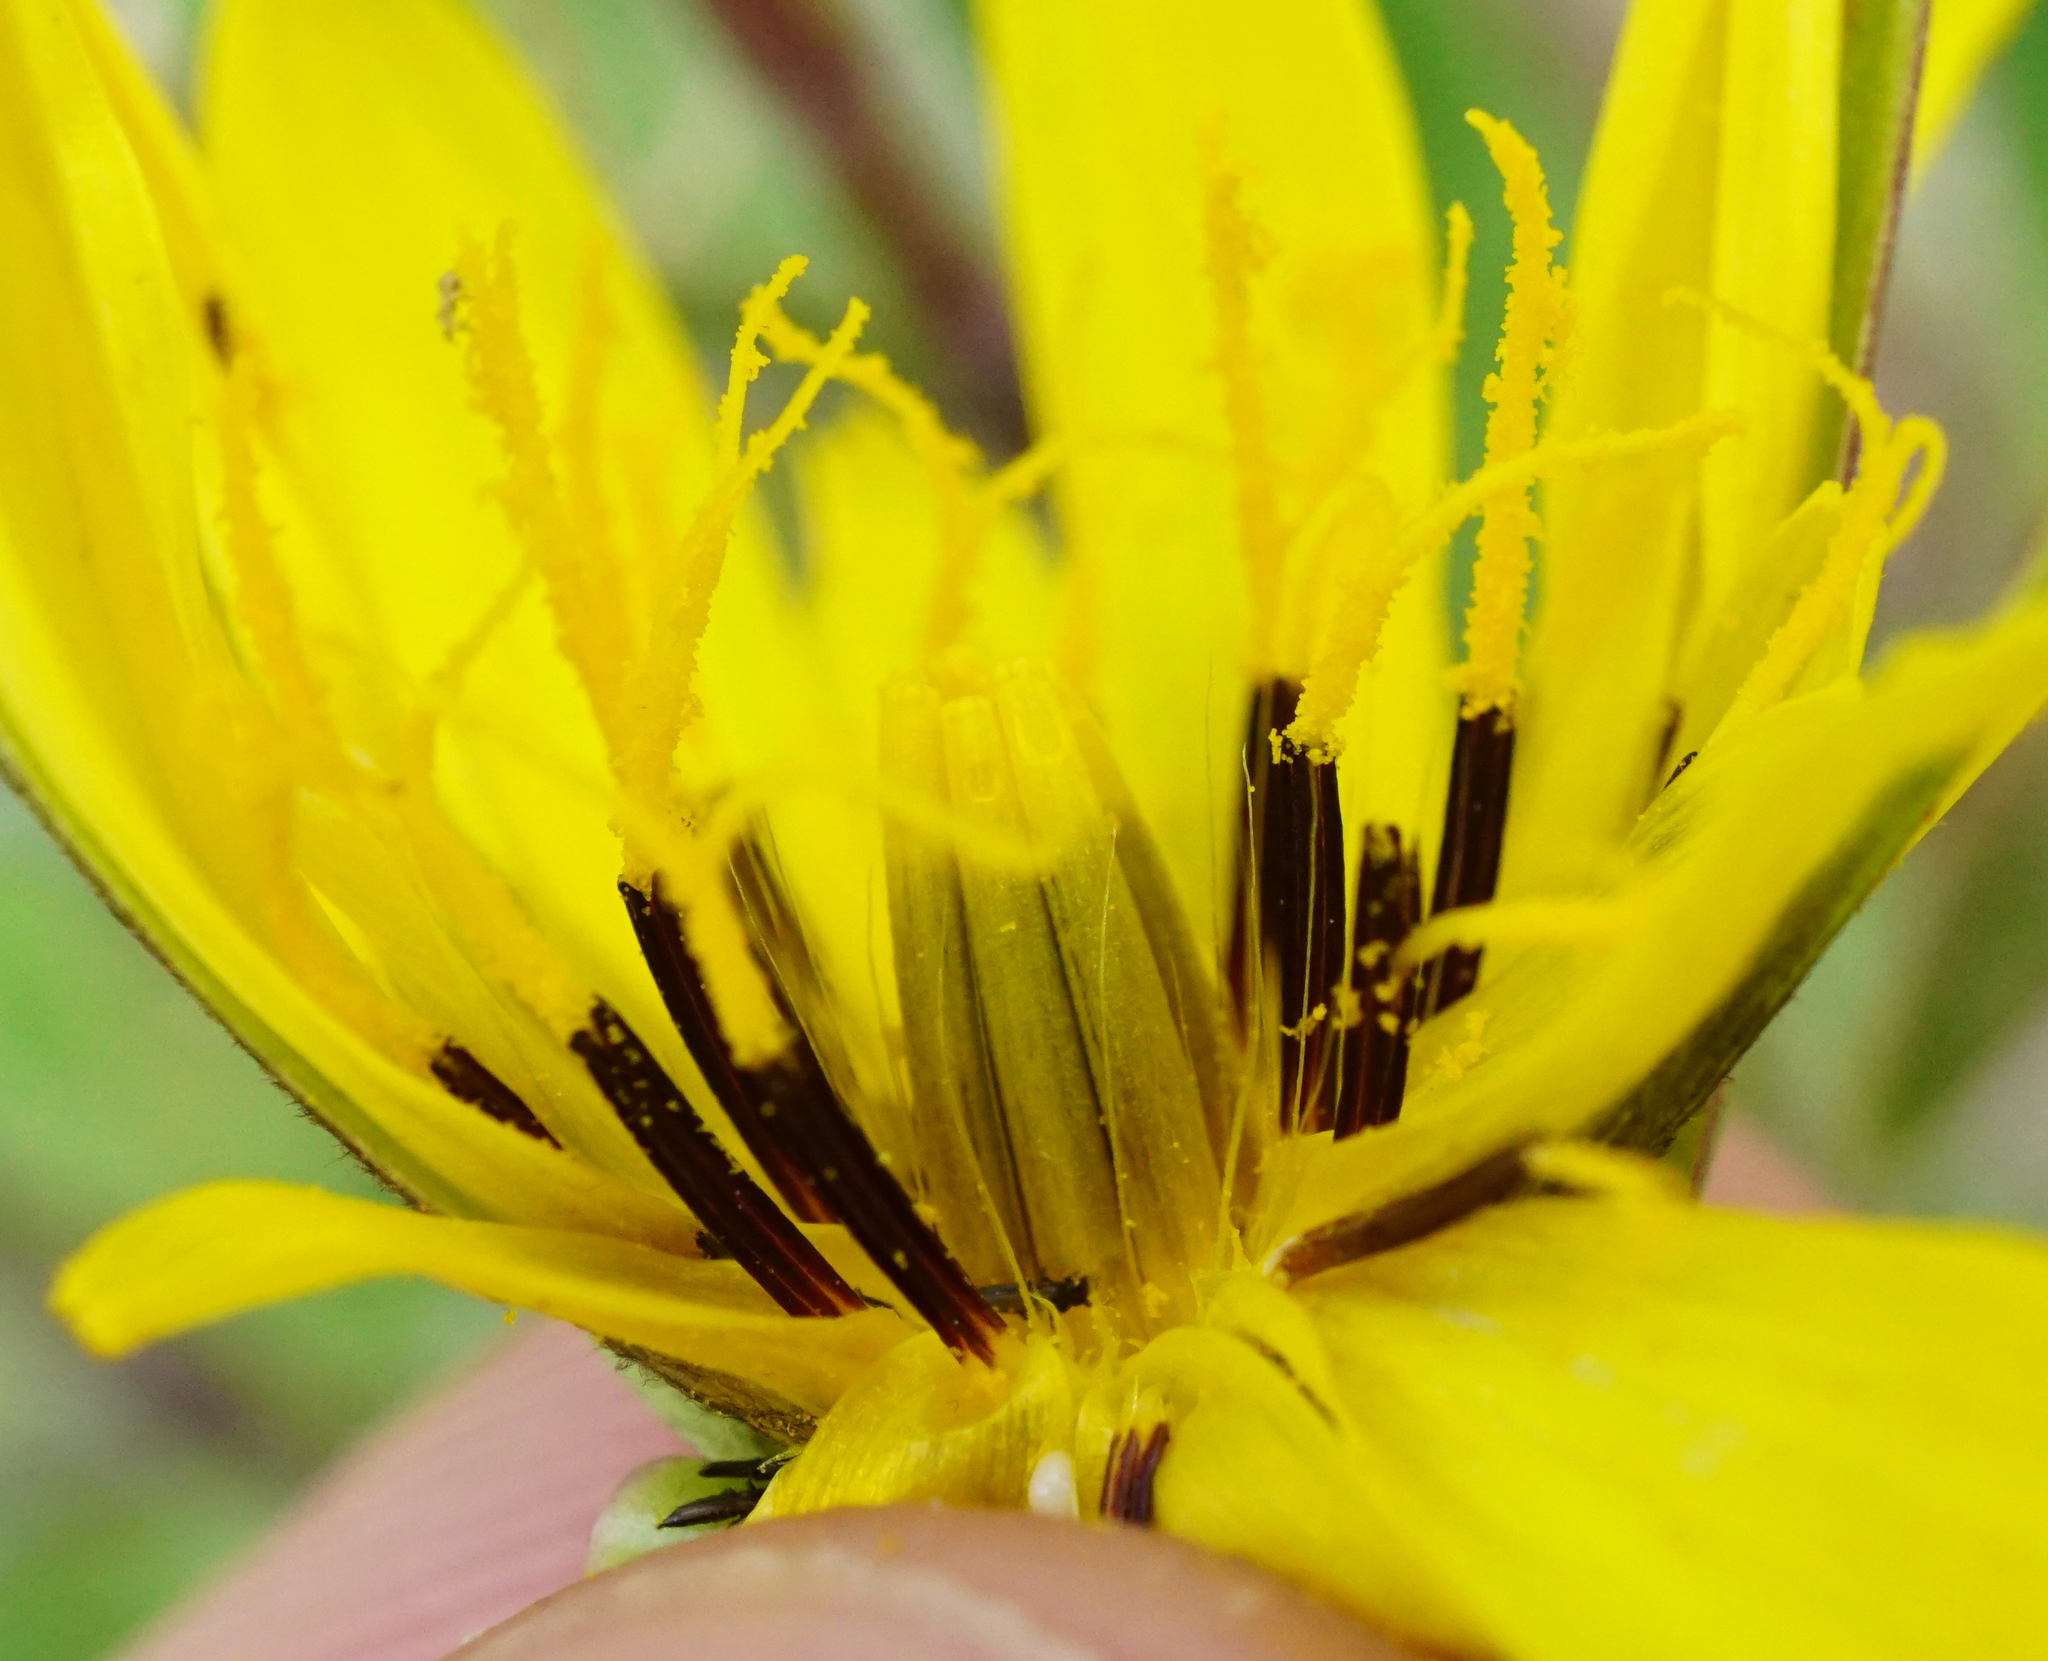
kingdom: Plantae
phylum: Tracheophyta
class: Magnoliopsida
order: Asterales
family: Asteraceae
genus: Tragopogon
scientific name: Tragopogon pratensis
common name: Goat's-beard
